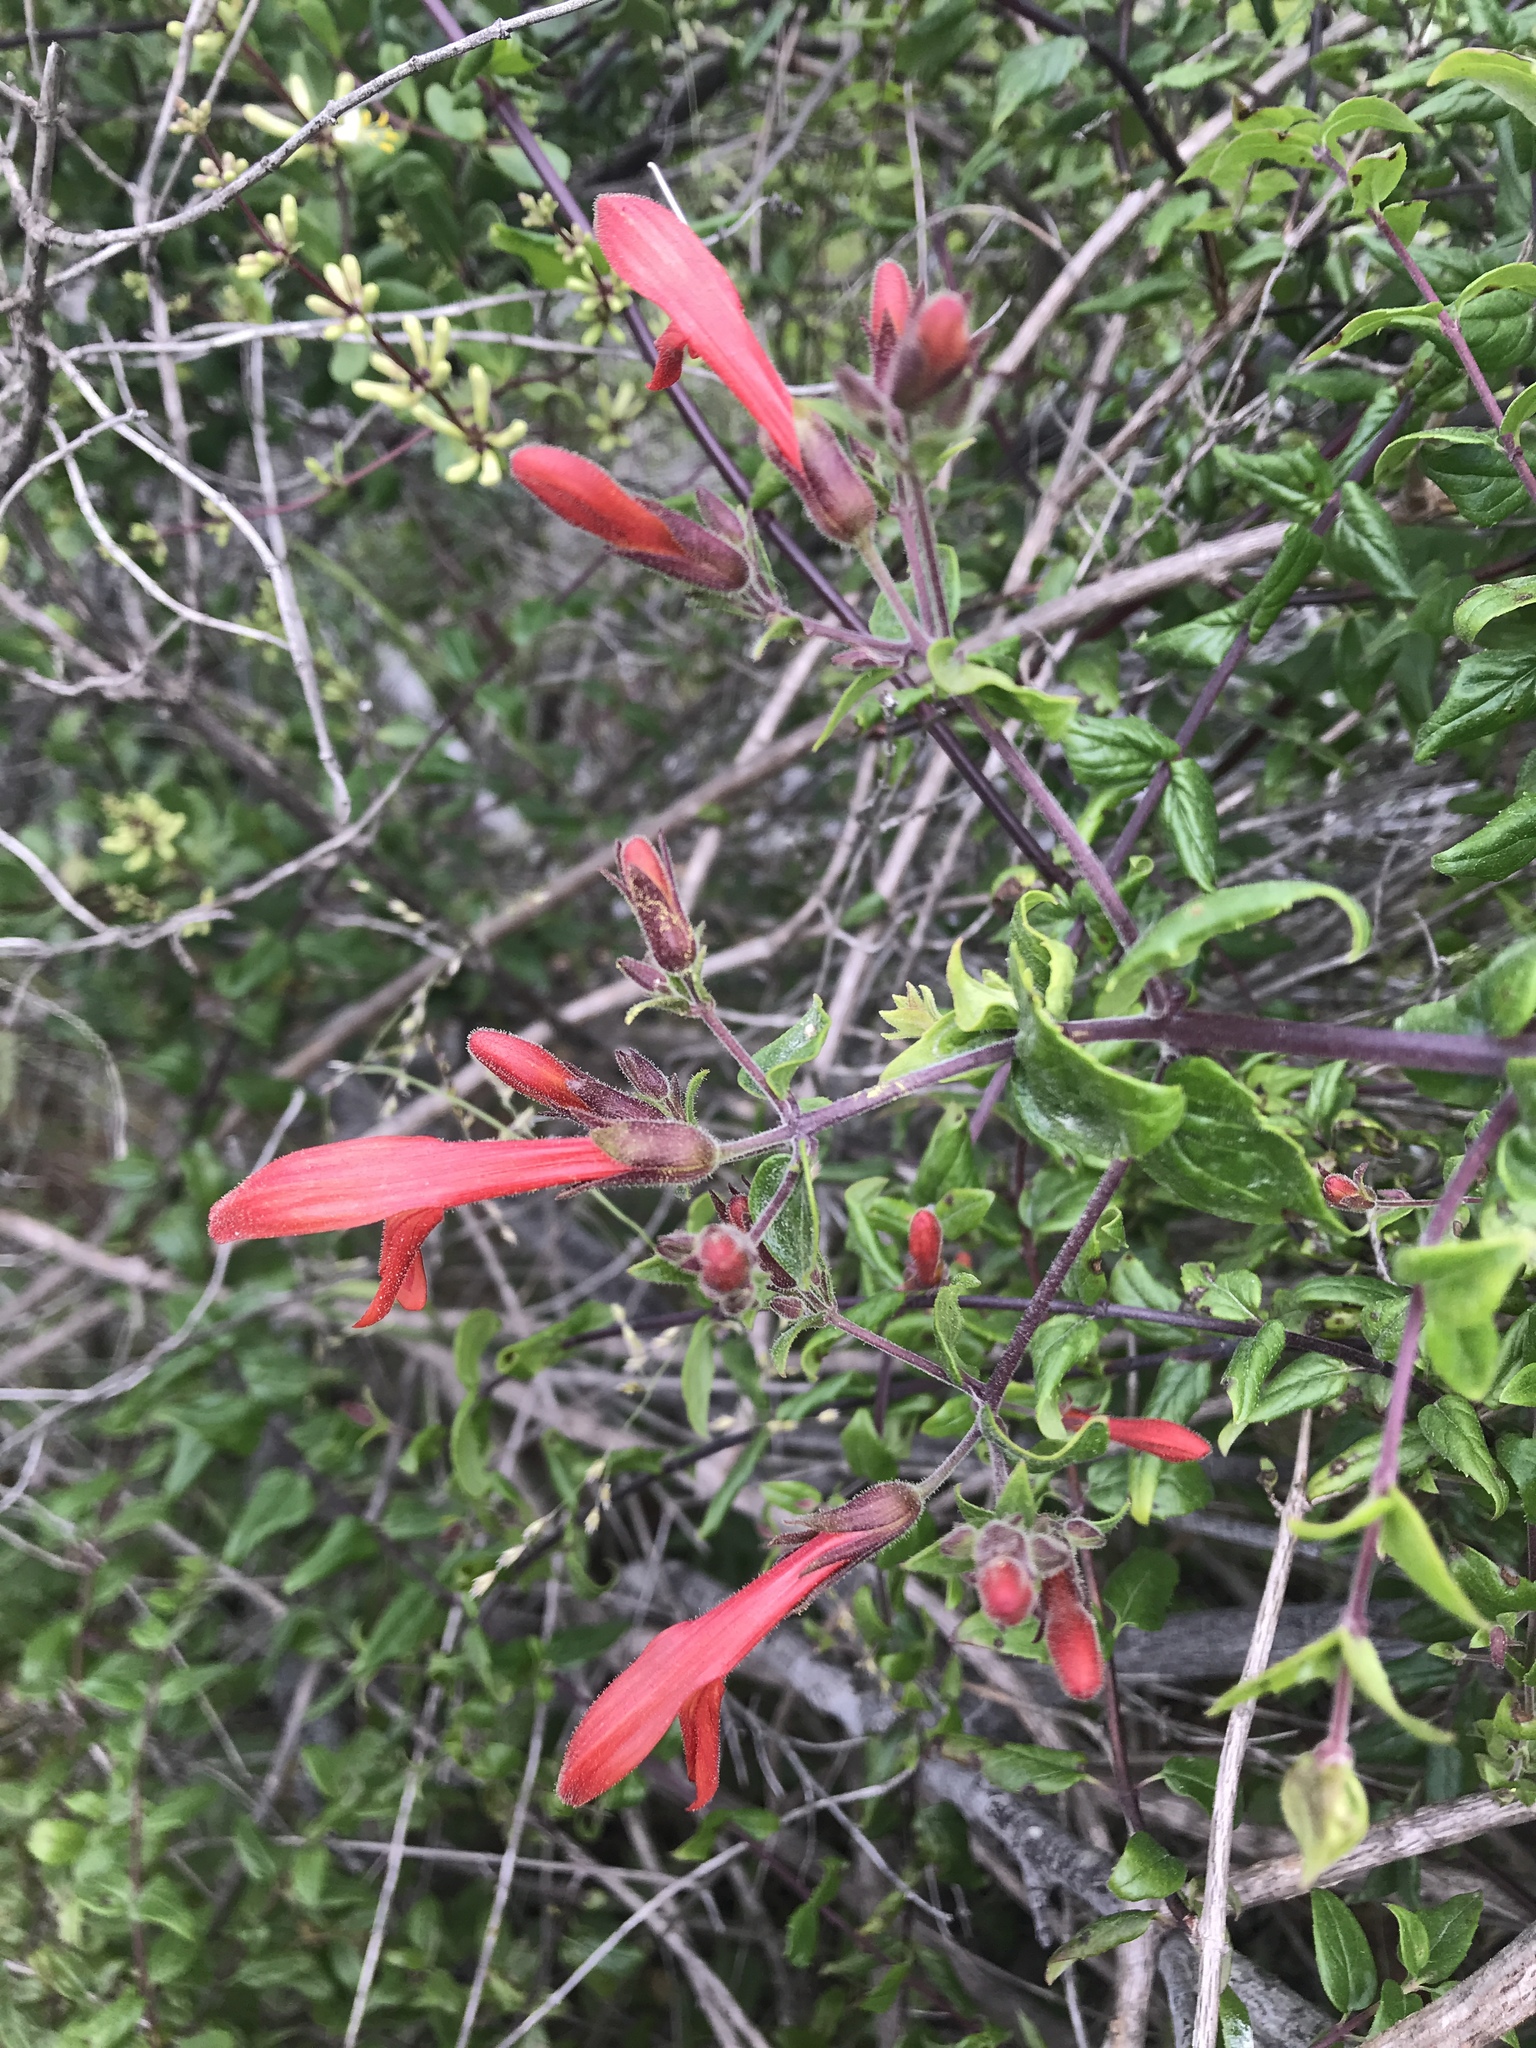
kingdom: Plantae
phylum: Tracheophyta
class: Magnoliopsida
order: Lamiales
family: Plantaginaceae
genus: Keckiella
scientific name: Keckiella cordifolia
